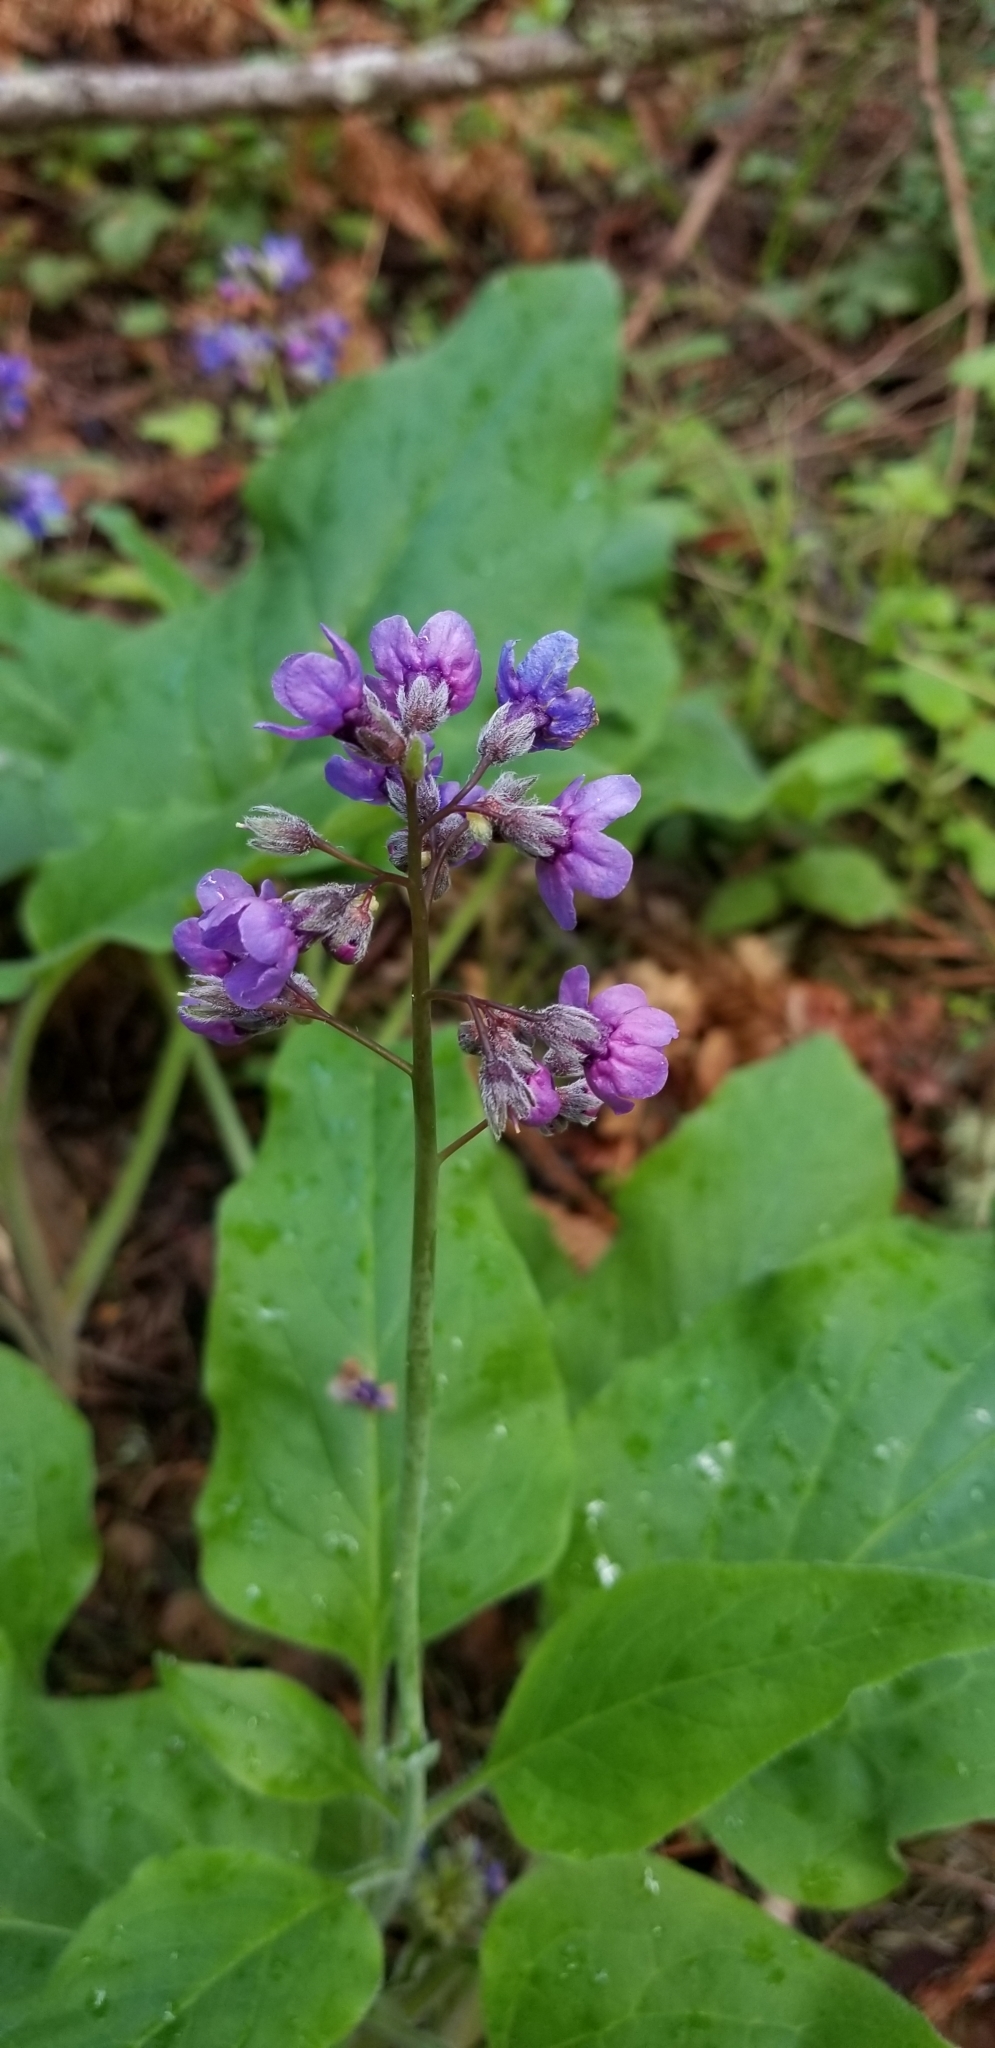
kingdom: Plantae
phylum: Tracheophyta
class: Magnoliopsida
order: Boraginales
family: Boraginaceae
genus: Adelinia
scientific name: Adelinia grande
